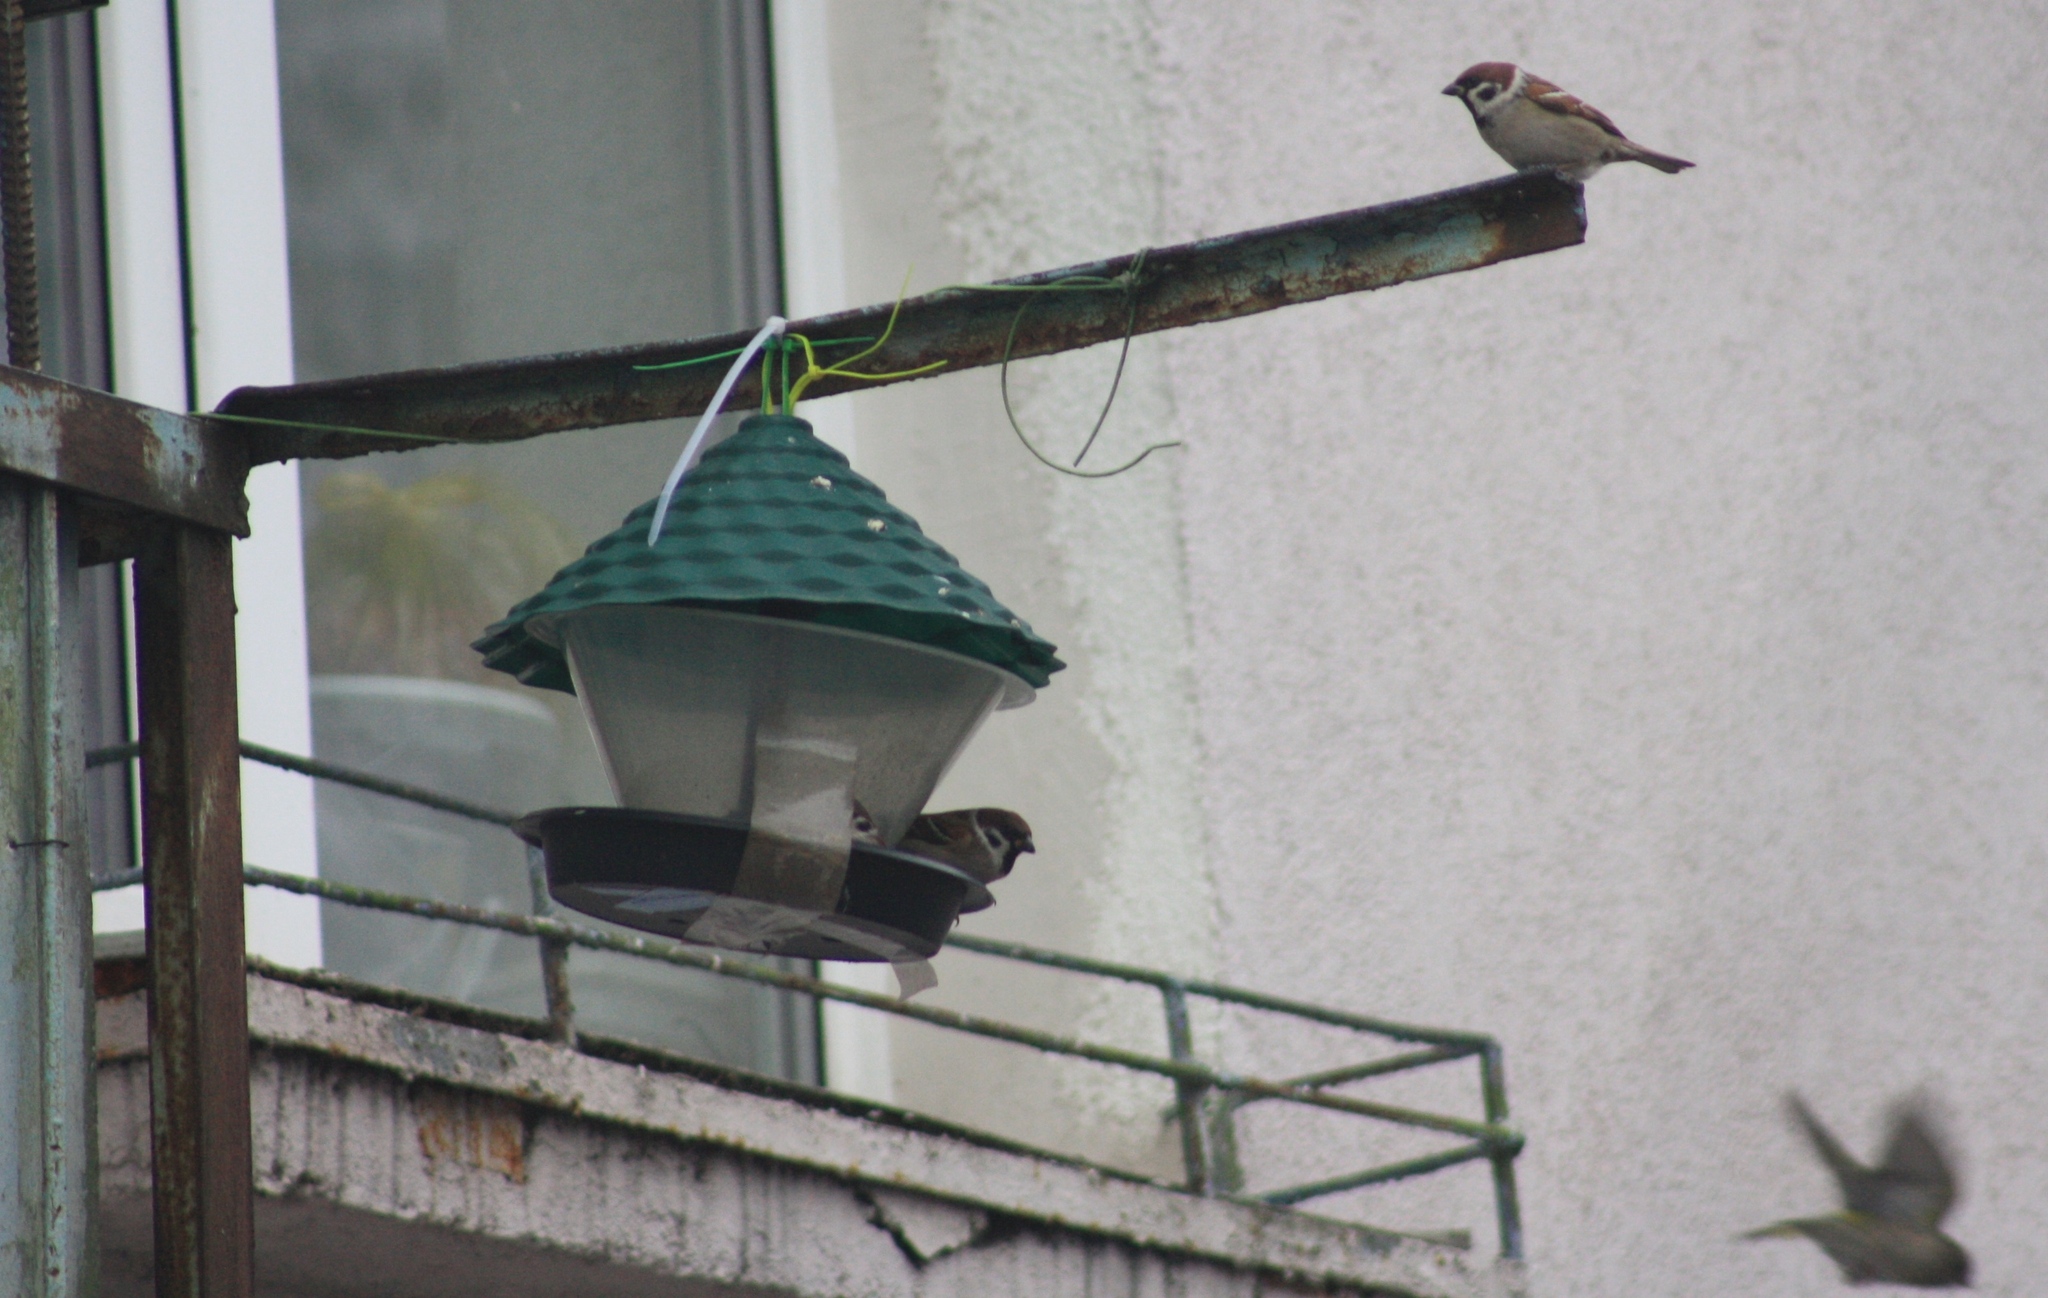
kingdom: Animalia
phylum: Chordata
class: Aves
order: Passeriformes
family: Passeridae
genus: Passer
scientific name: Passer montanus
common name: Eurasian tree sparrow
